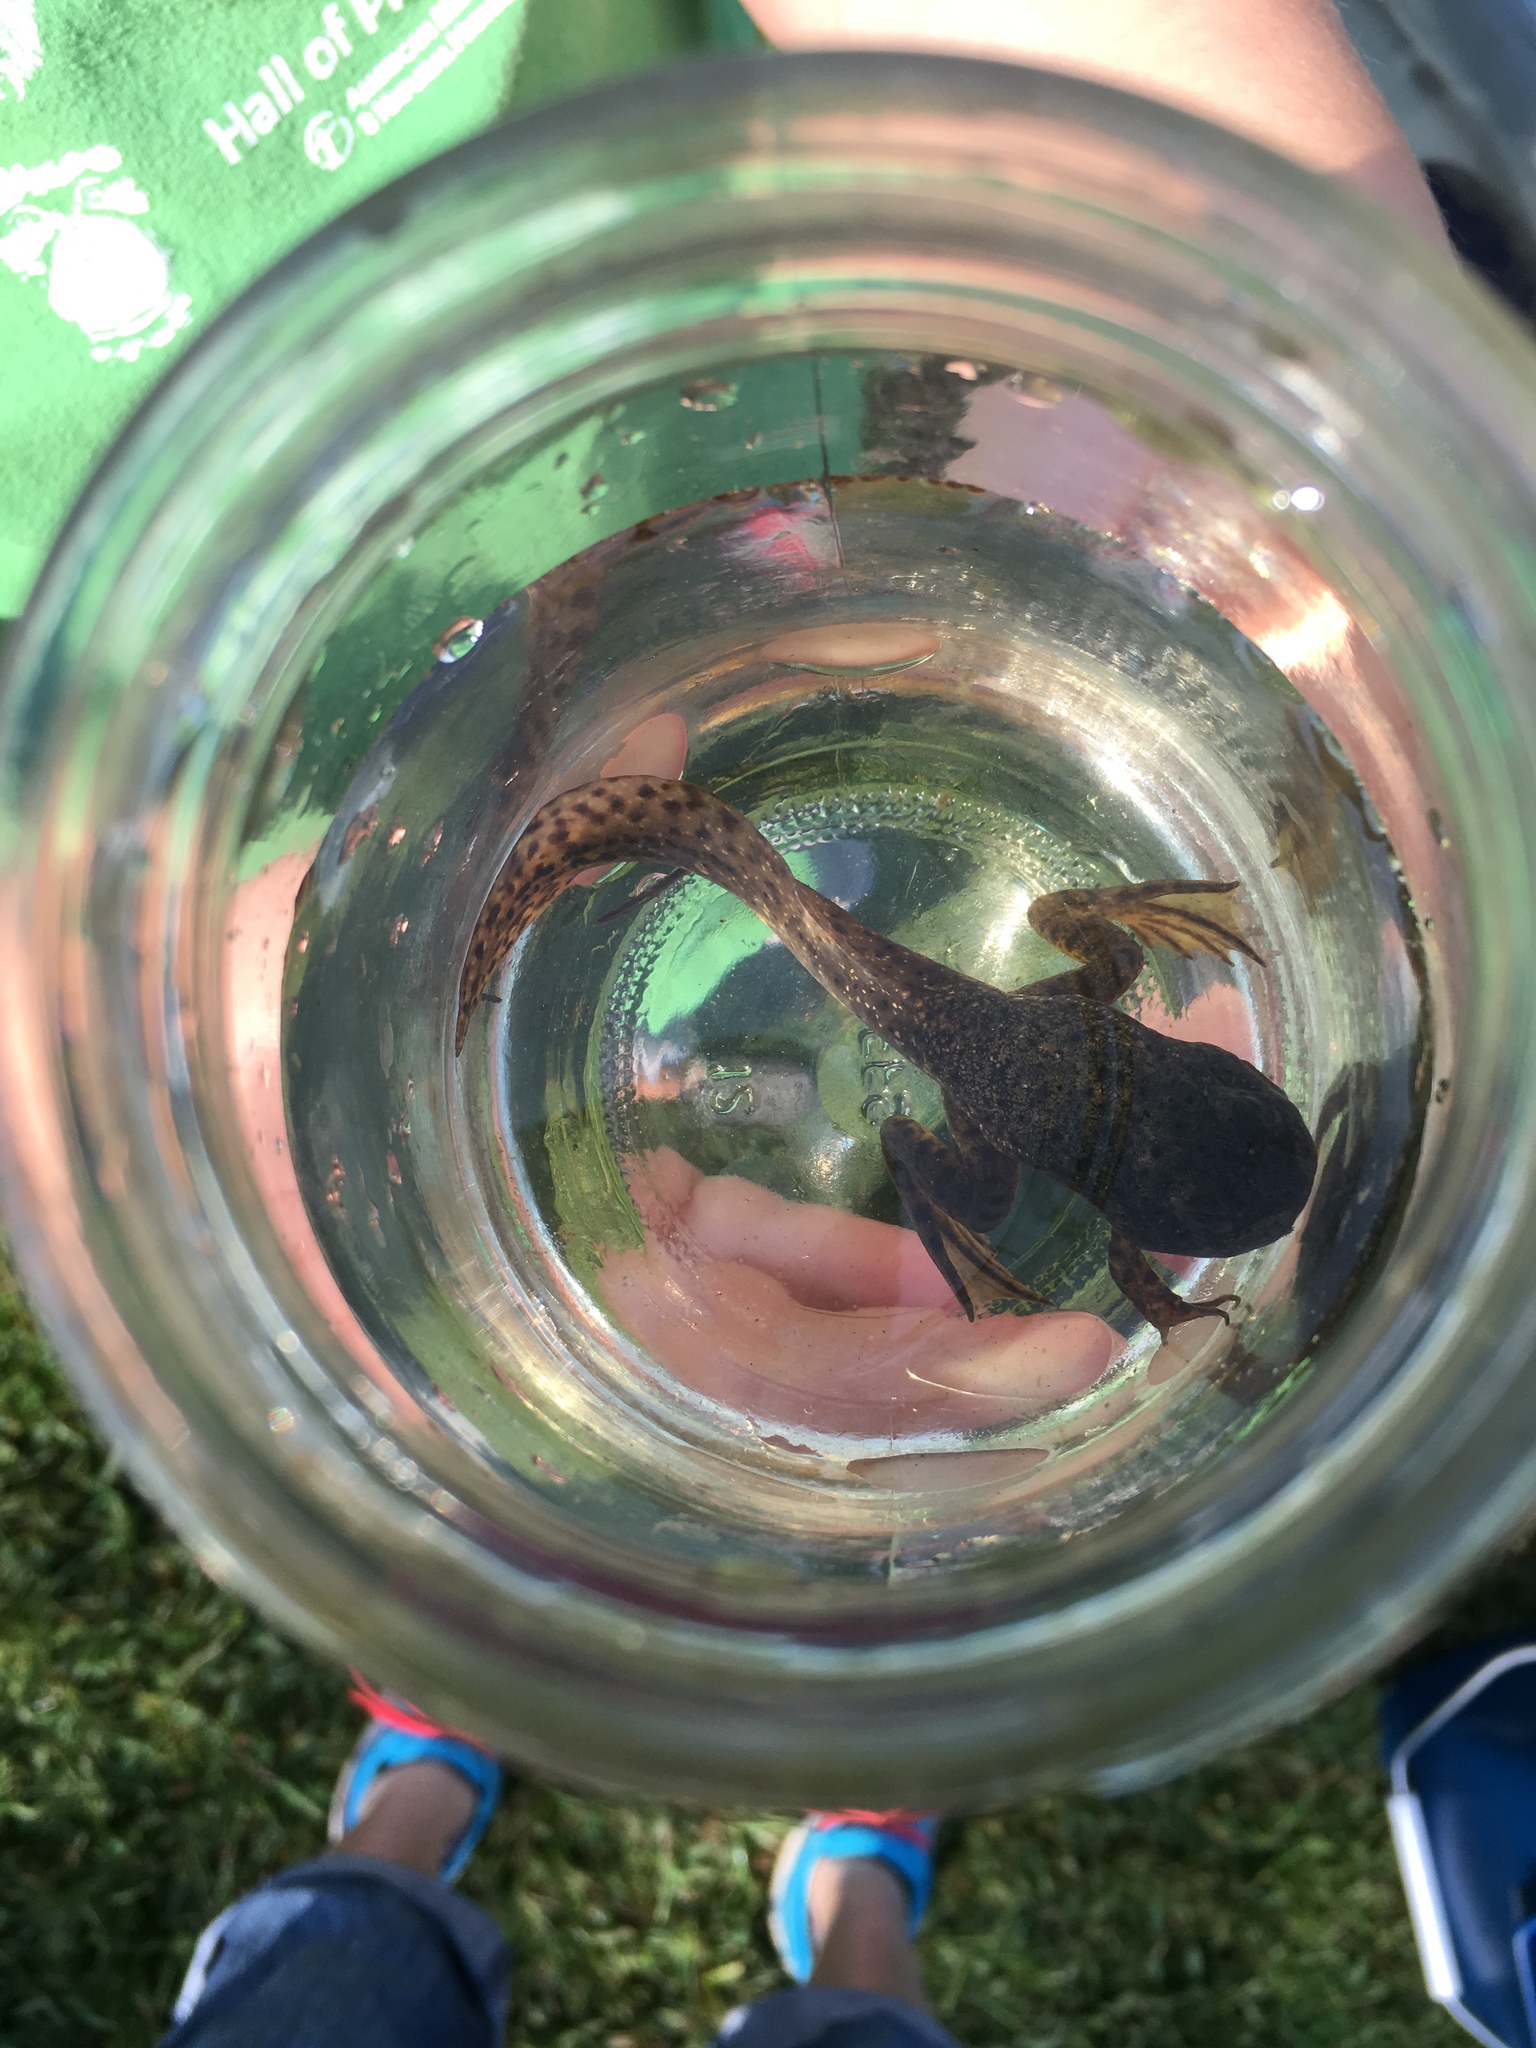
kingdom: Animalia
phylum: Chordata
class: Amphibia
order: Anura
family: Ranidae
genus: Lithobates
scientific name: Lithobates clamitans
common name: Green frog
